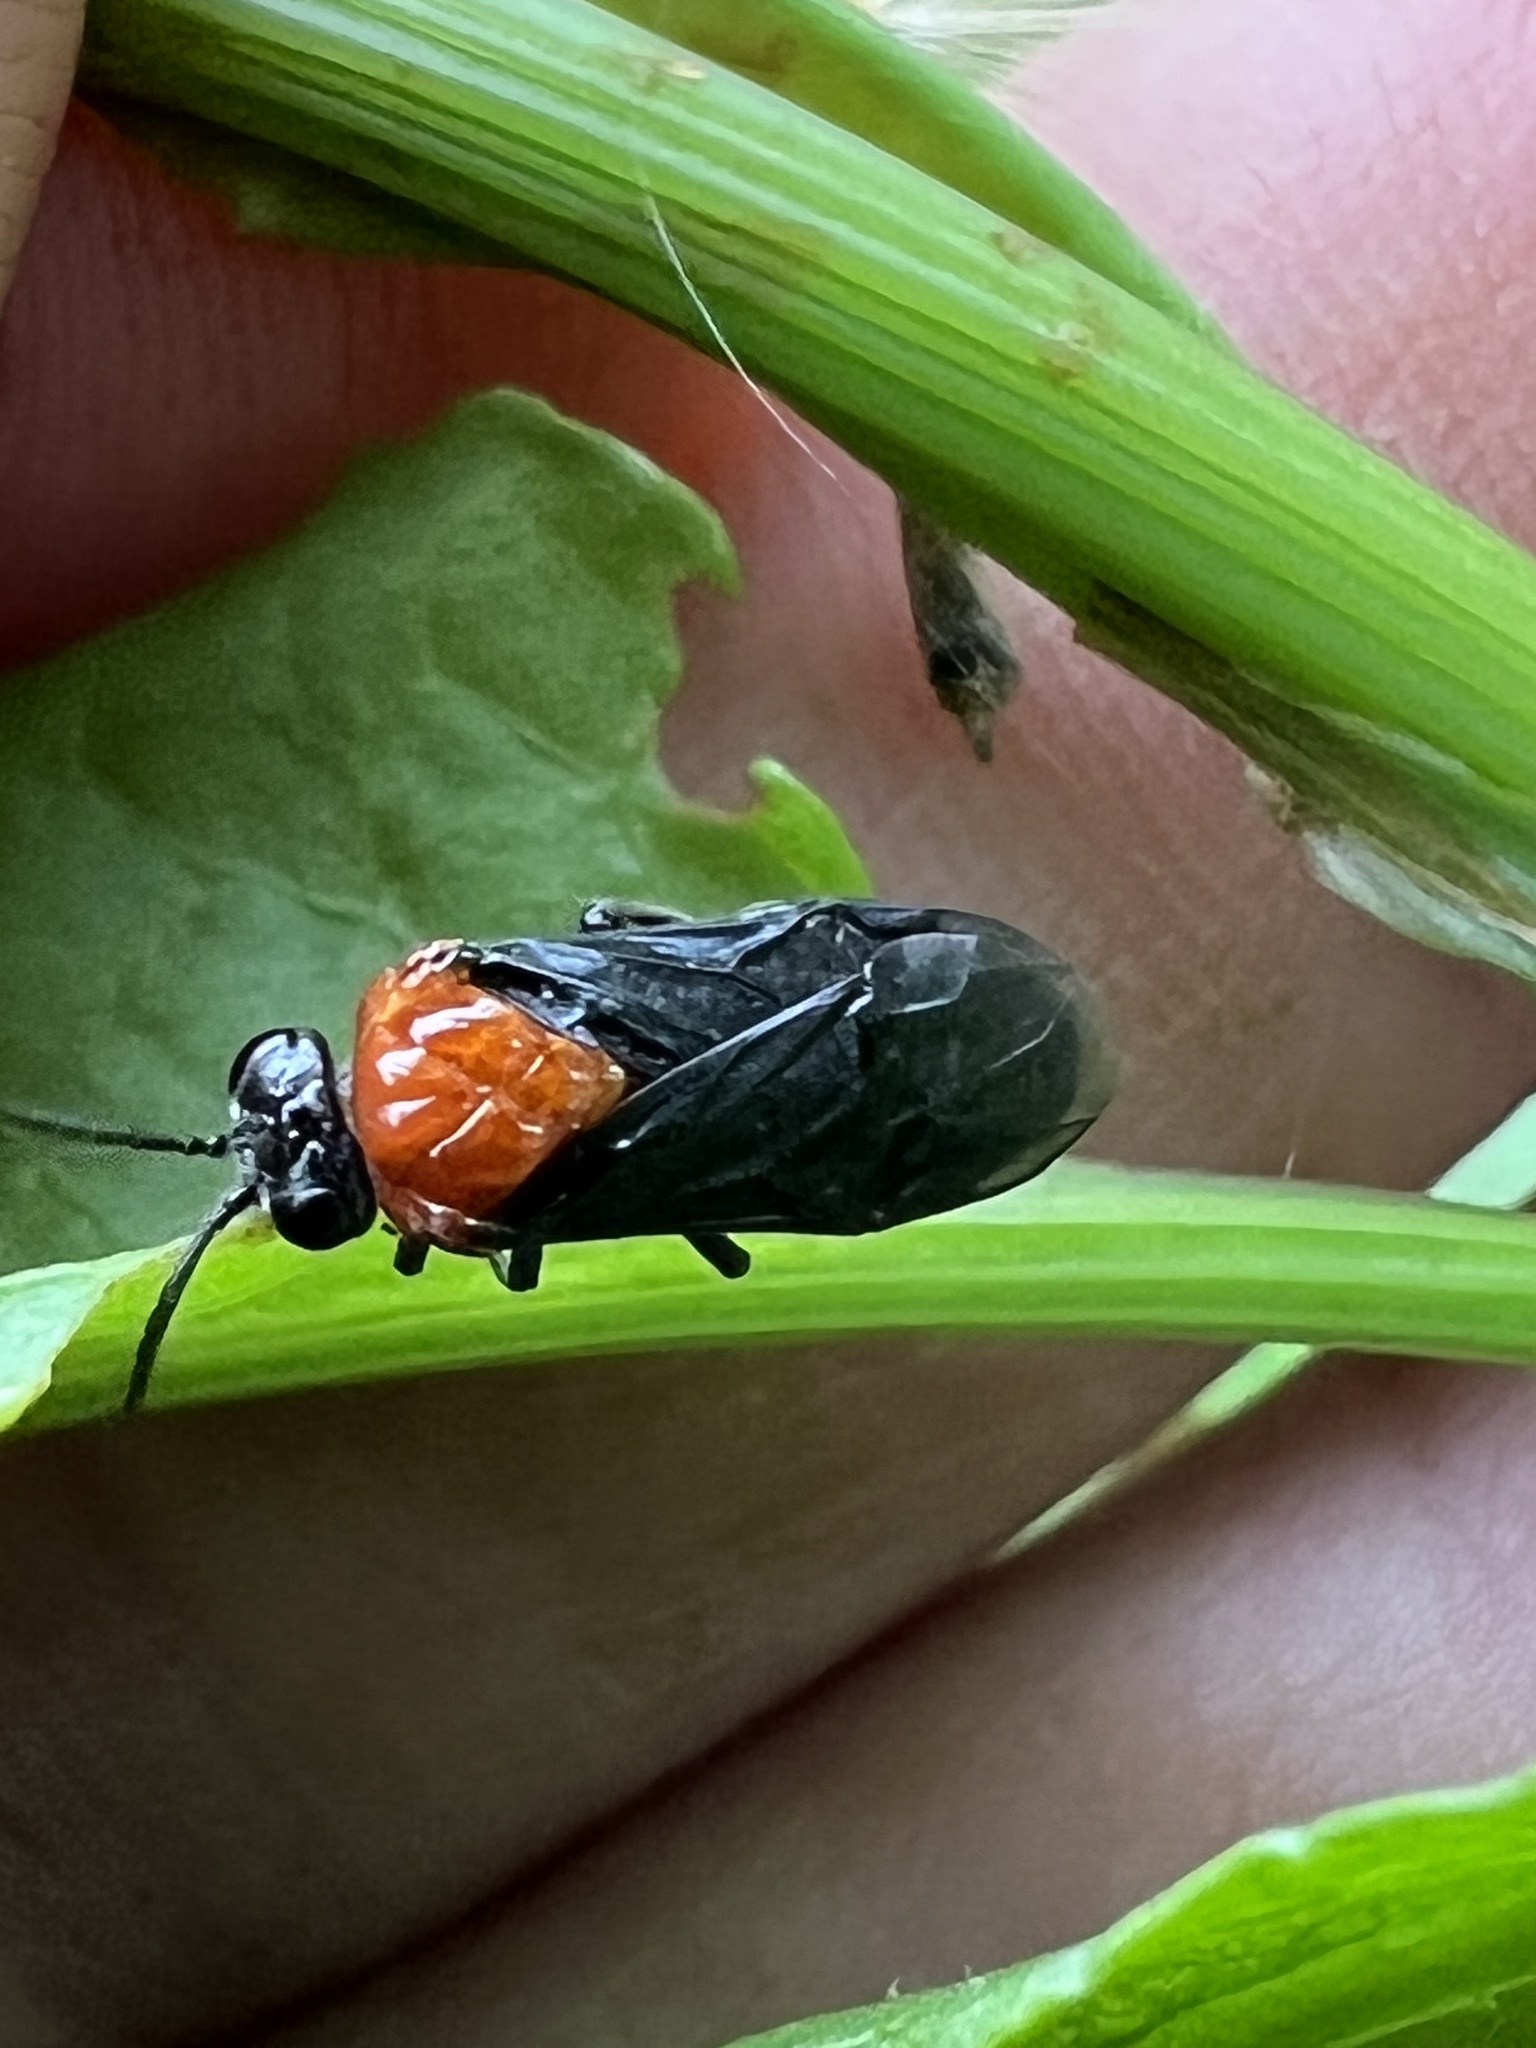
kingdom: Animalia
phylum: Arthropoda
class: Insecta
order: Hymenoptera
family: Tenthredinidae
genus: Tethida
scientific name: Tethida barda
